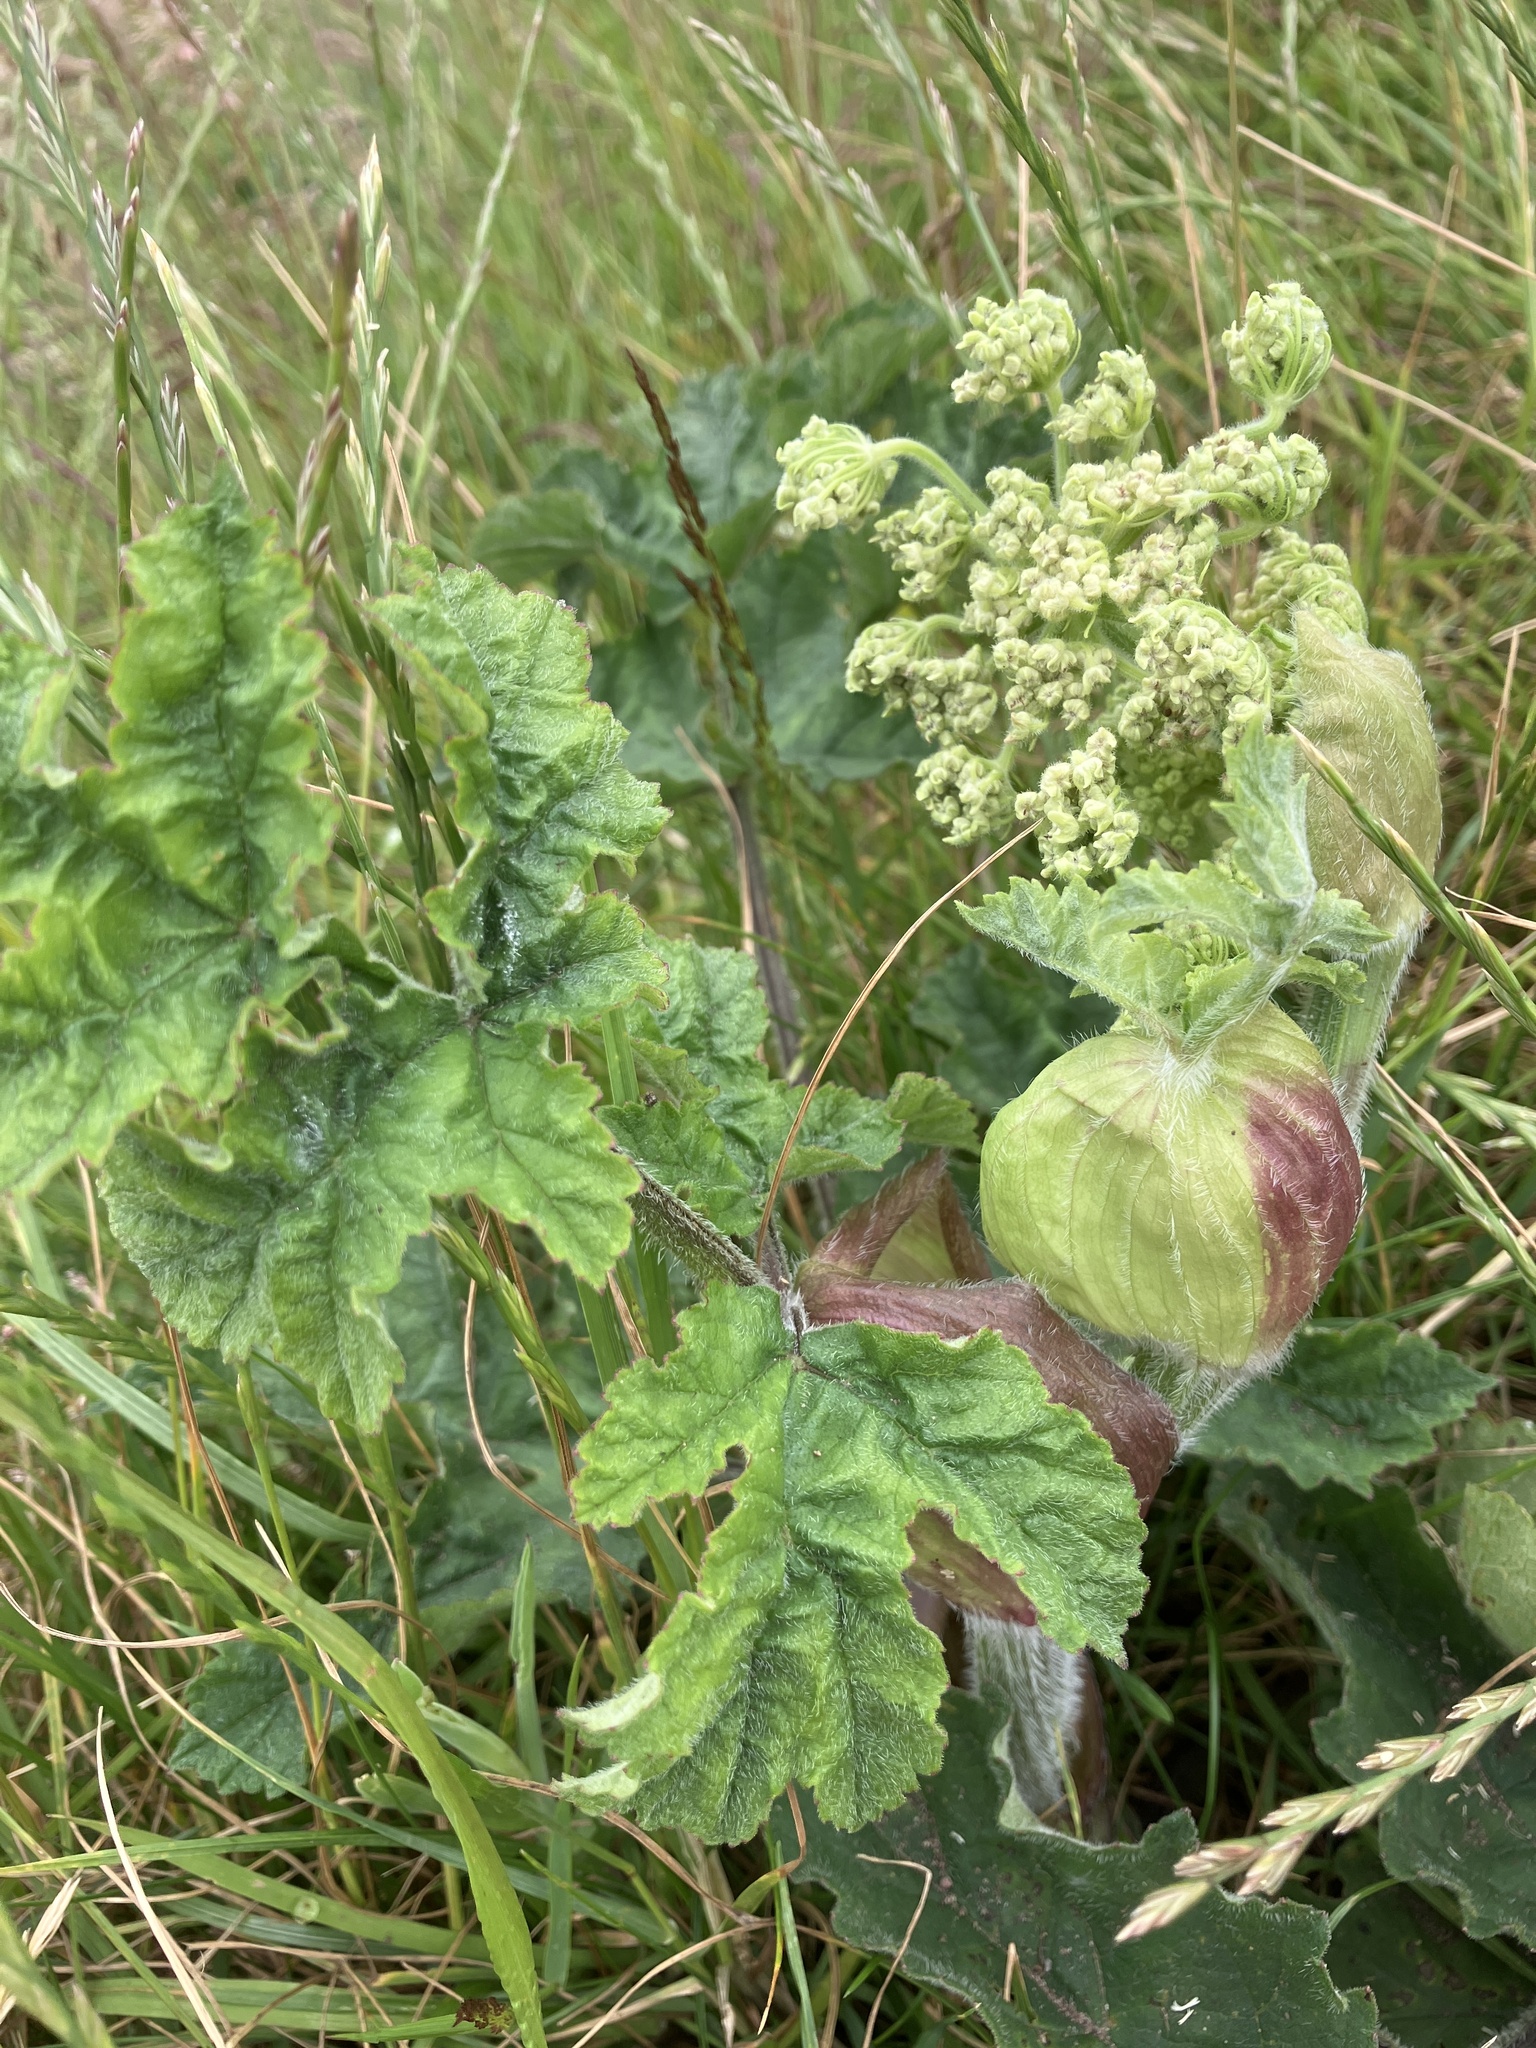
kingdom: Plantae
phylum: Tracheophyta
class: Magnoliopsida
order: Apiales
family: Apiaceae
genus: Heracleum
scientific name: Heracleum sphondylium
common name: Hogweed
